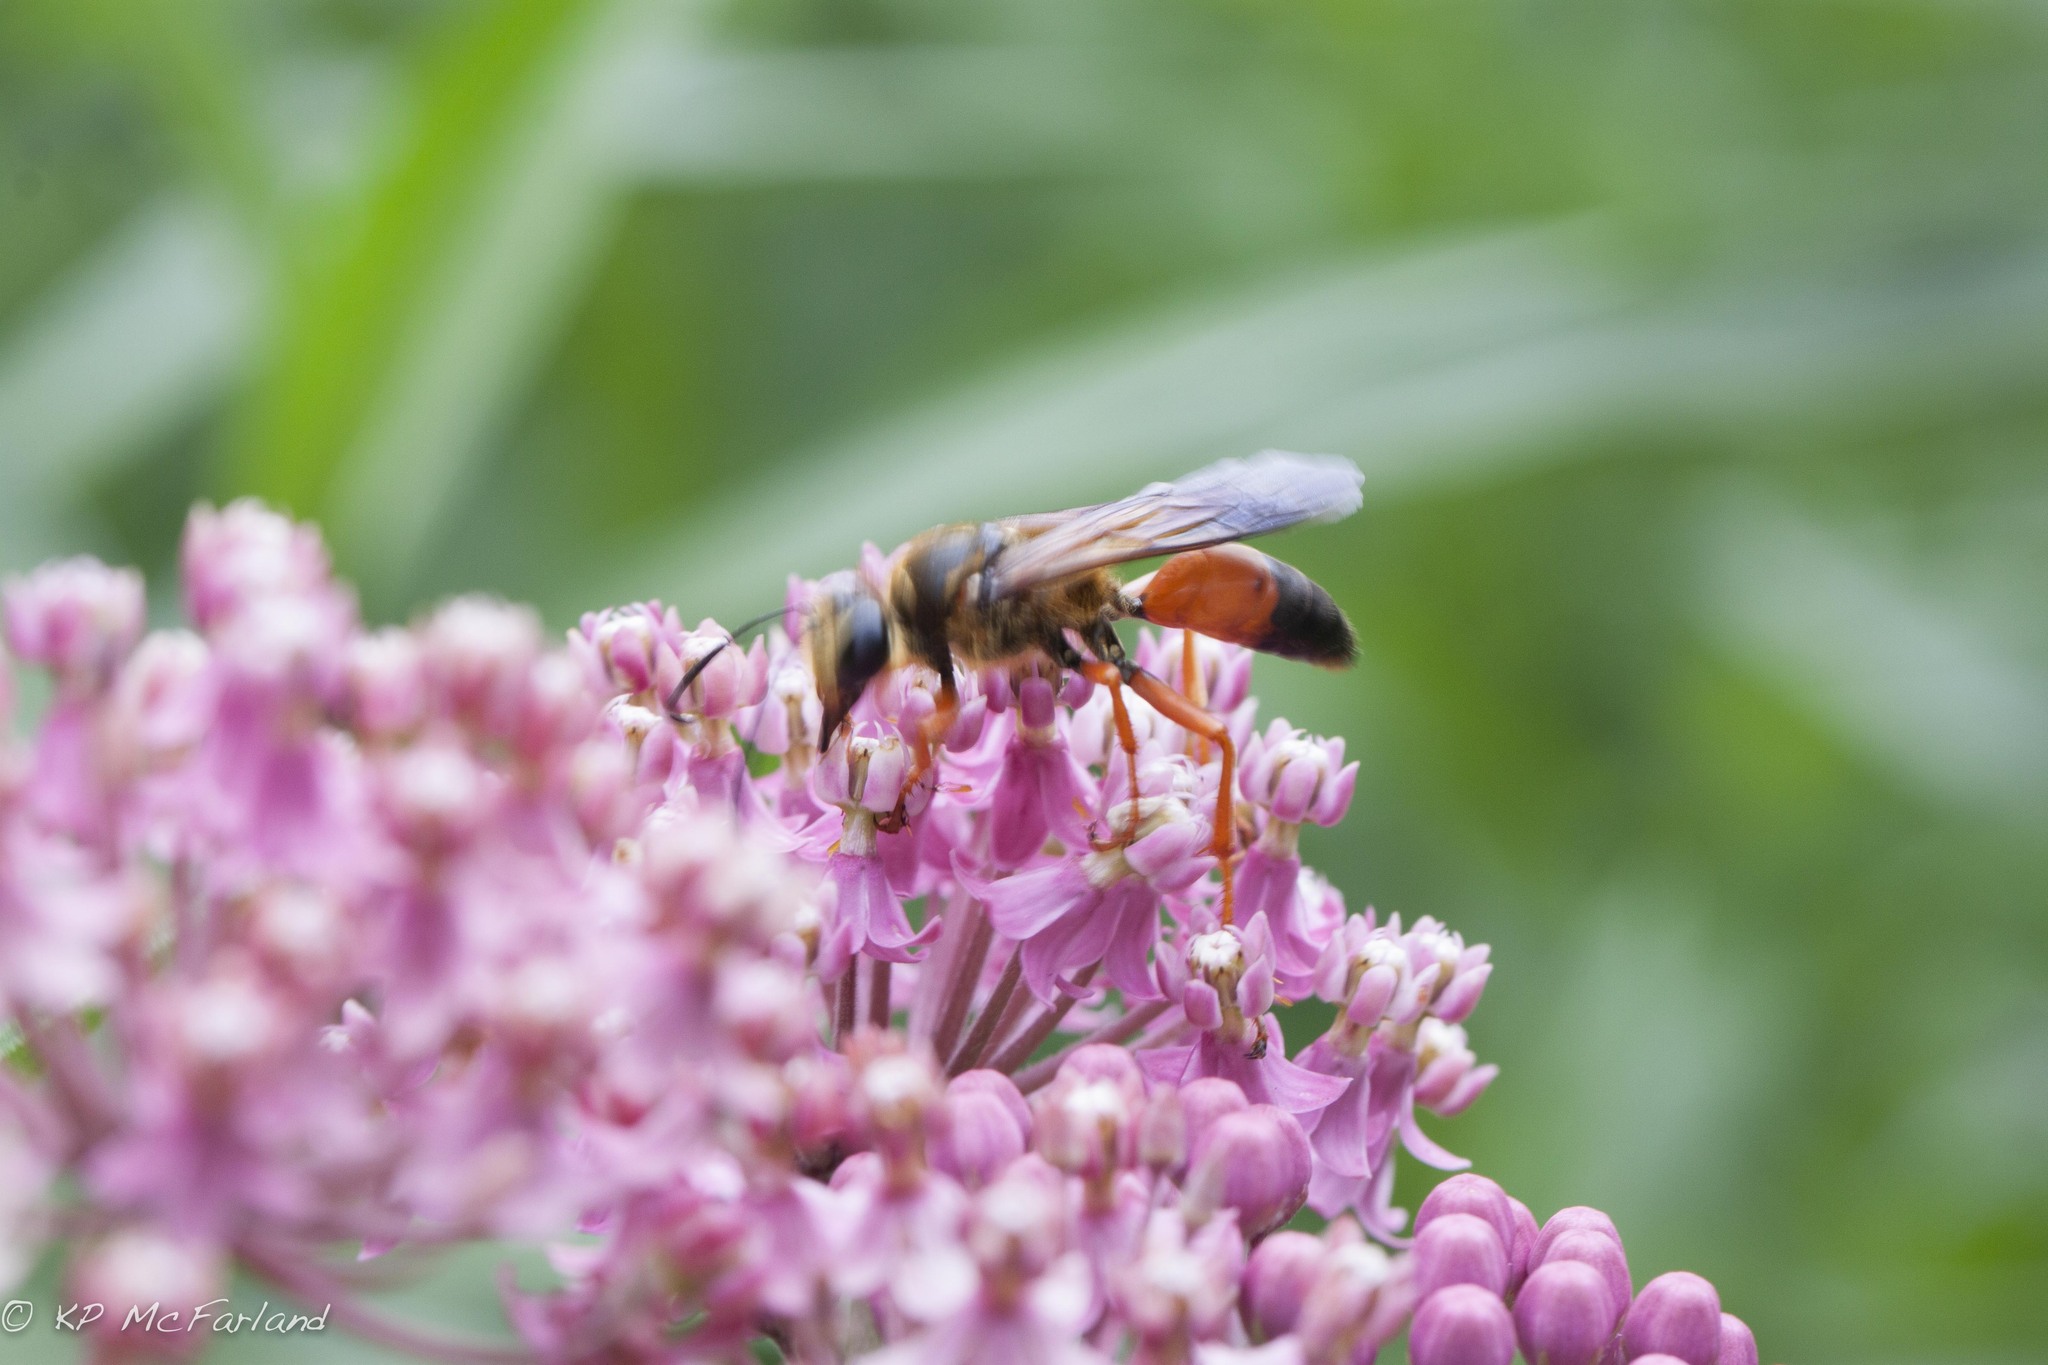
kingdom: Animalia
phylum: Arthropoda
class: Insecta
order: Hymenoptera
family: Sphecidae
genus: Sphex
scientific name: Sphex ichneumoneus
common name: Great golden digger wasp
